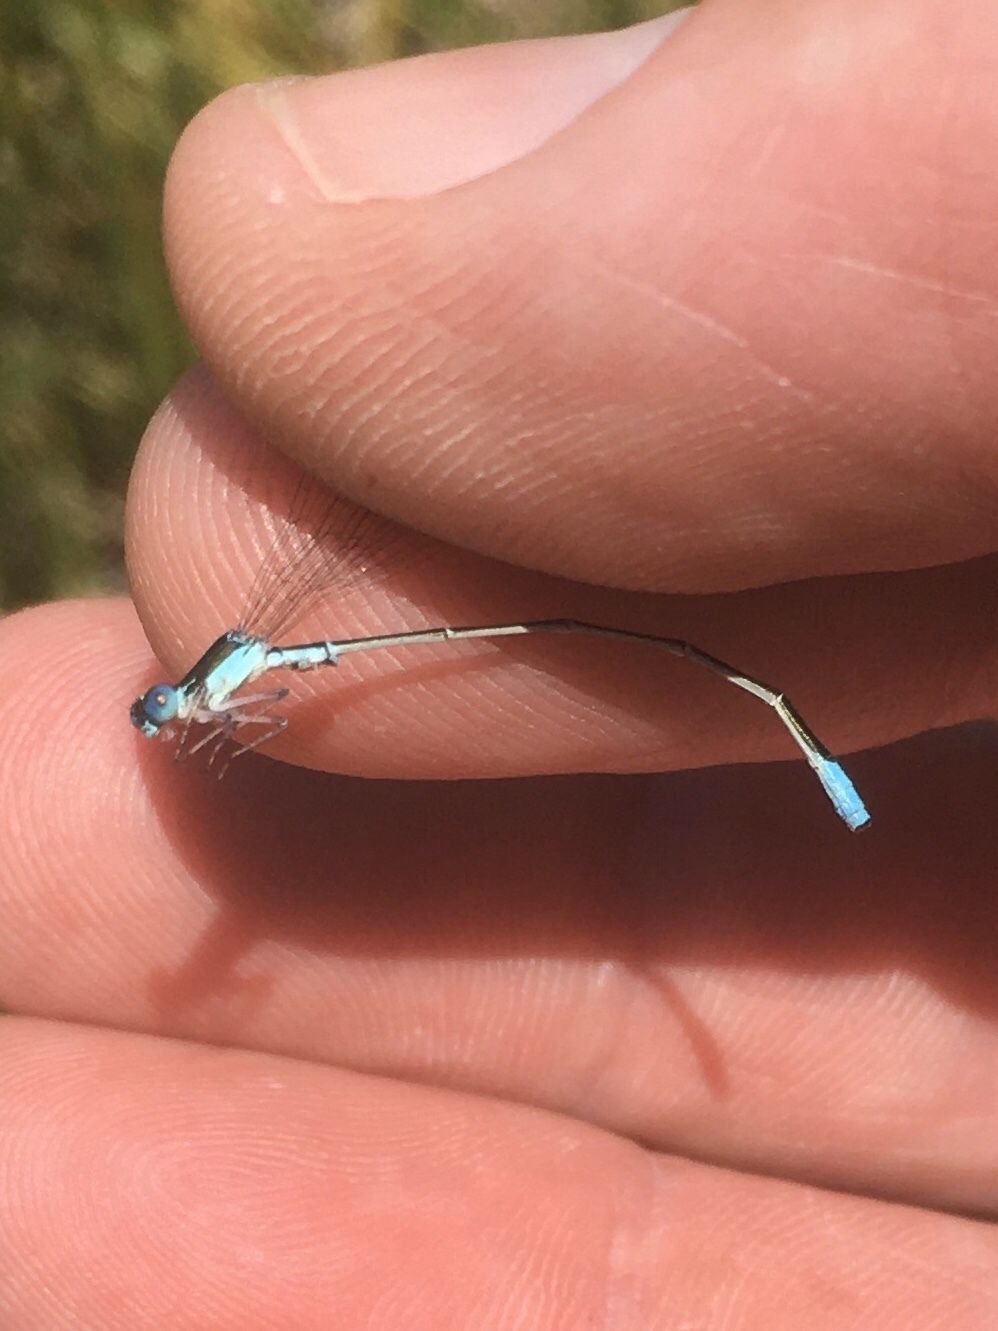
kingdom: Animalia
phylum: Arthropoda
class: Insecta
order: Odonata
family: Coenagrionidae
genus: Nehalennia
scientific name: Nehalennia gracilis
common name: Sphagnum sprite
